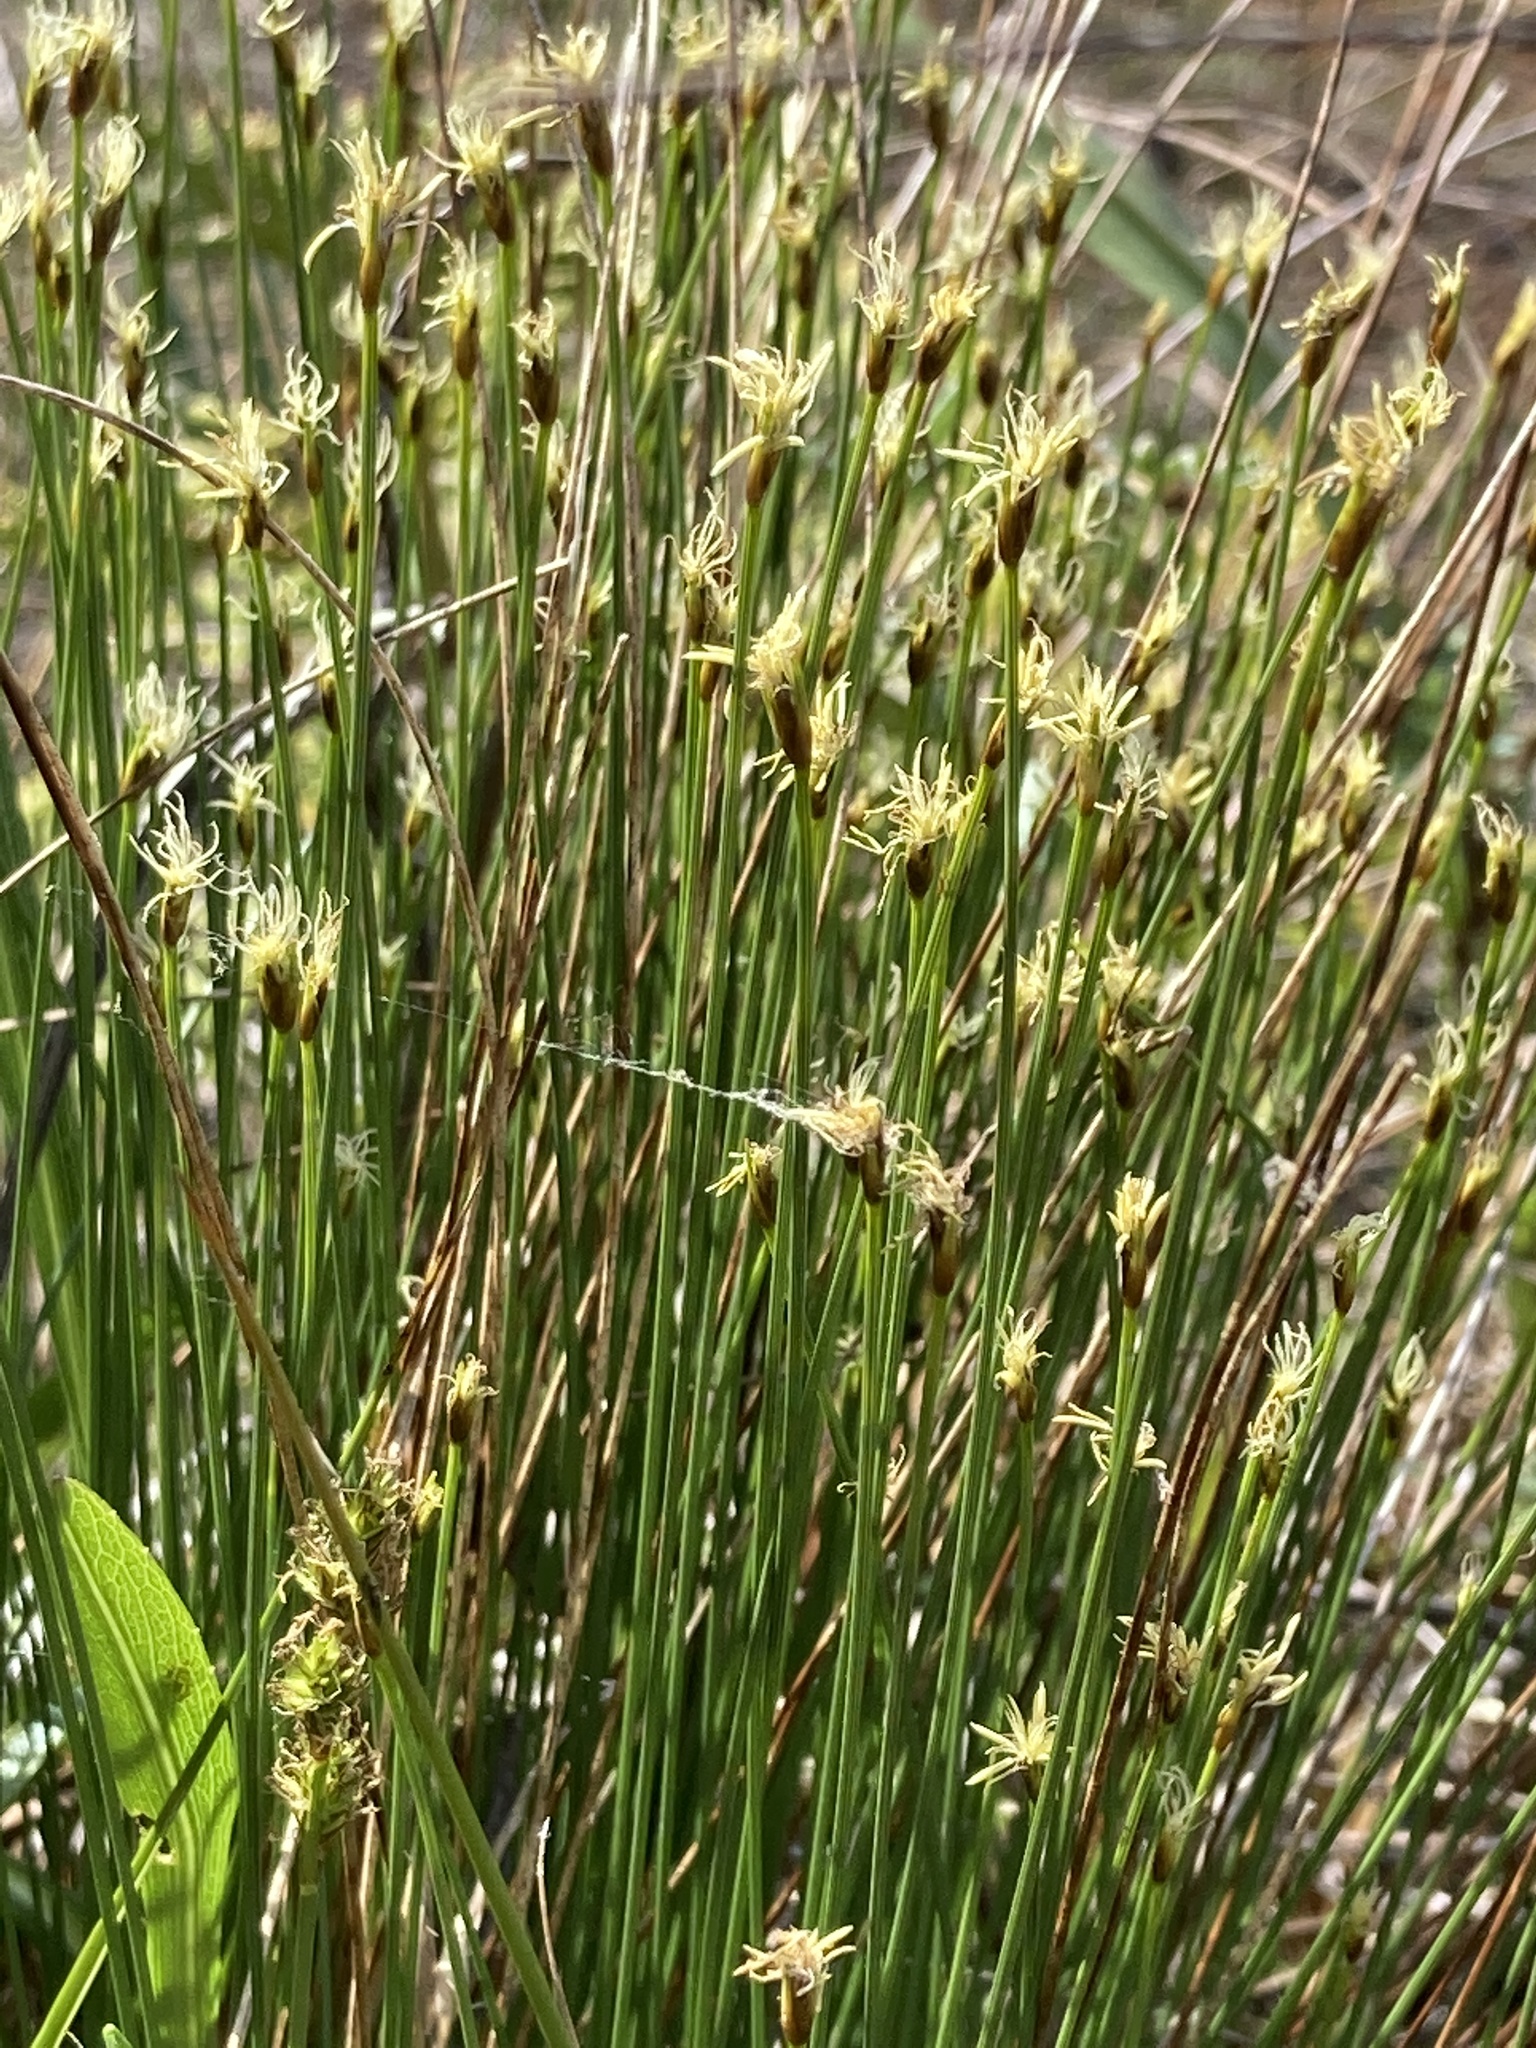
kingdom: Plantae
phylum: Tracheophyta
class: Liliopsida
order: Poales
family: Cyperaceae
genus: Trichophorum
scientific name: Trichophorum cespitosum
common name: Cespitose bulrush
